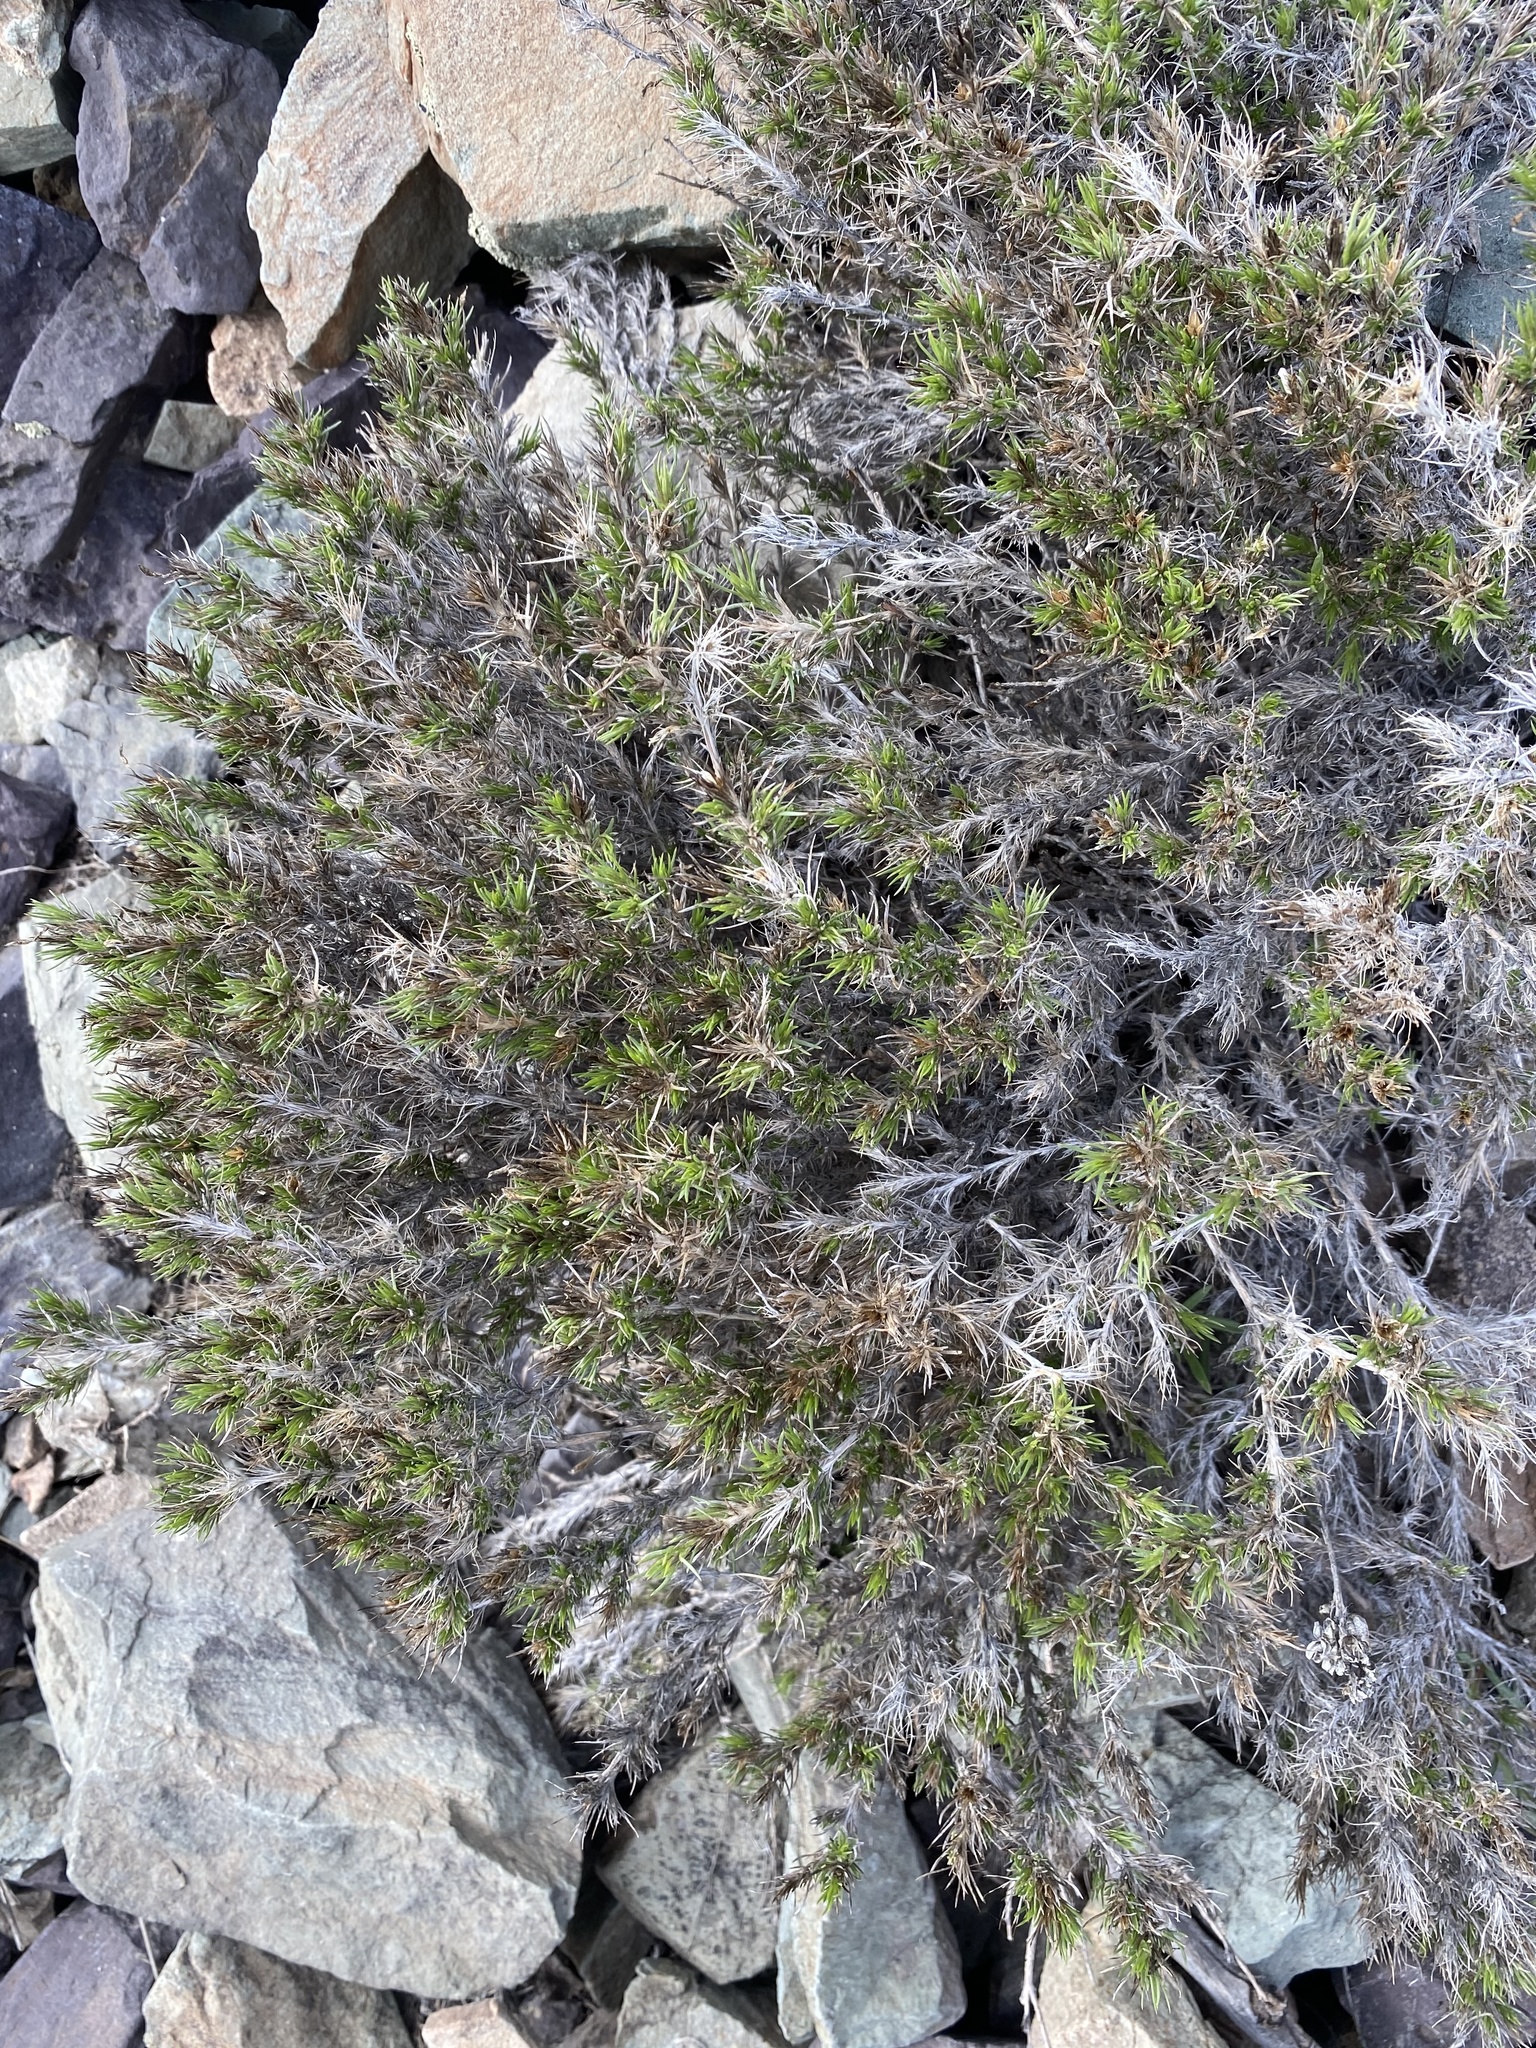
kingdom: Plantae
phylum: Tracheophyta
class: Magnoliopsida
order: Ericales
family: Polemoniaceae
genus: Linanthus
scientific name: Linanthus pungens
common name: Granite prickly phlox
